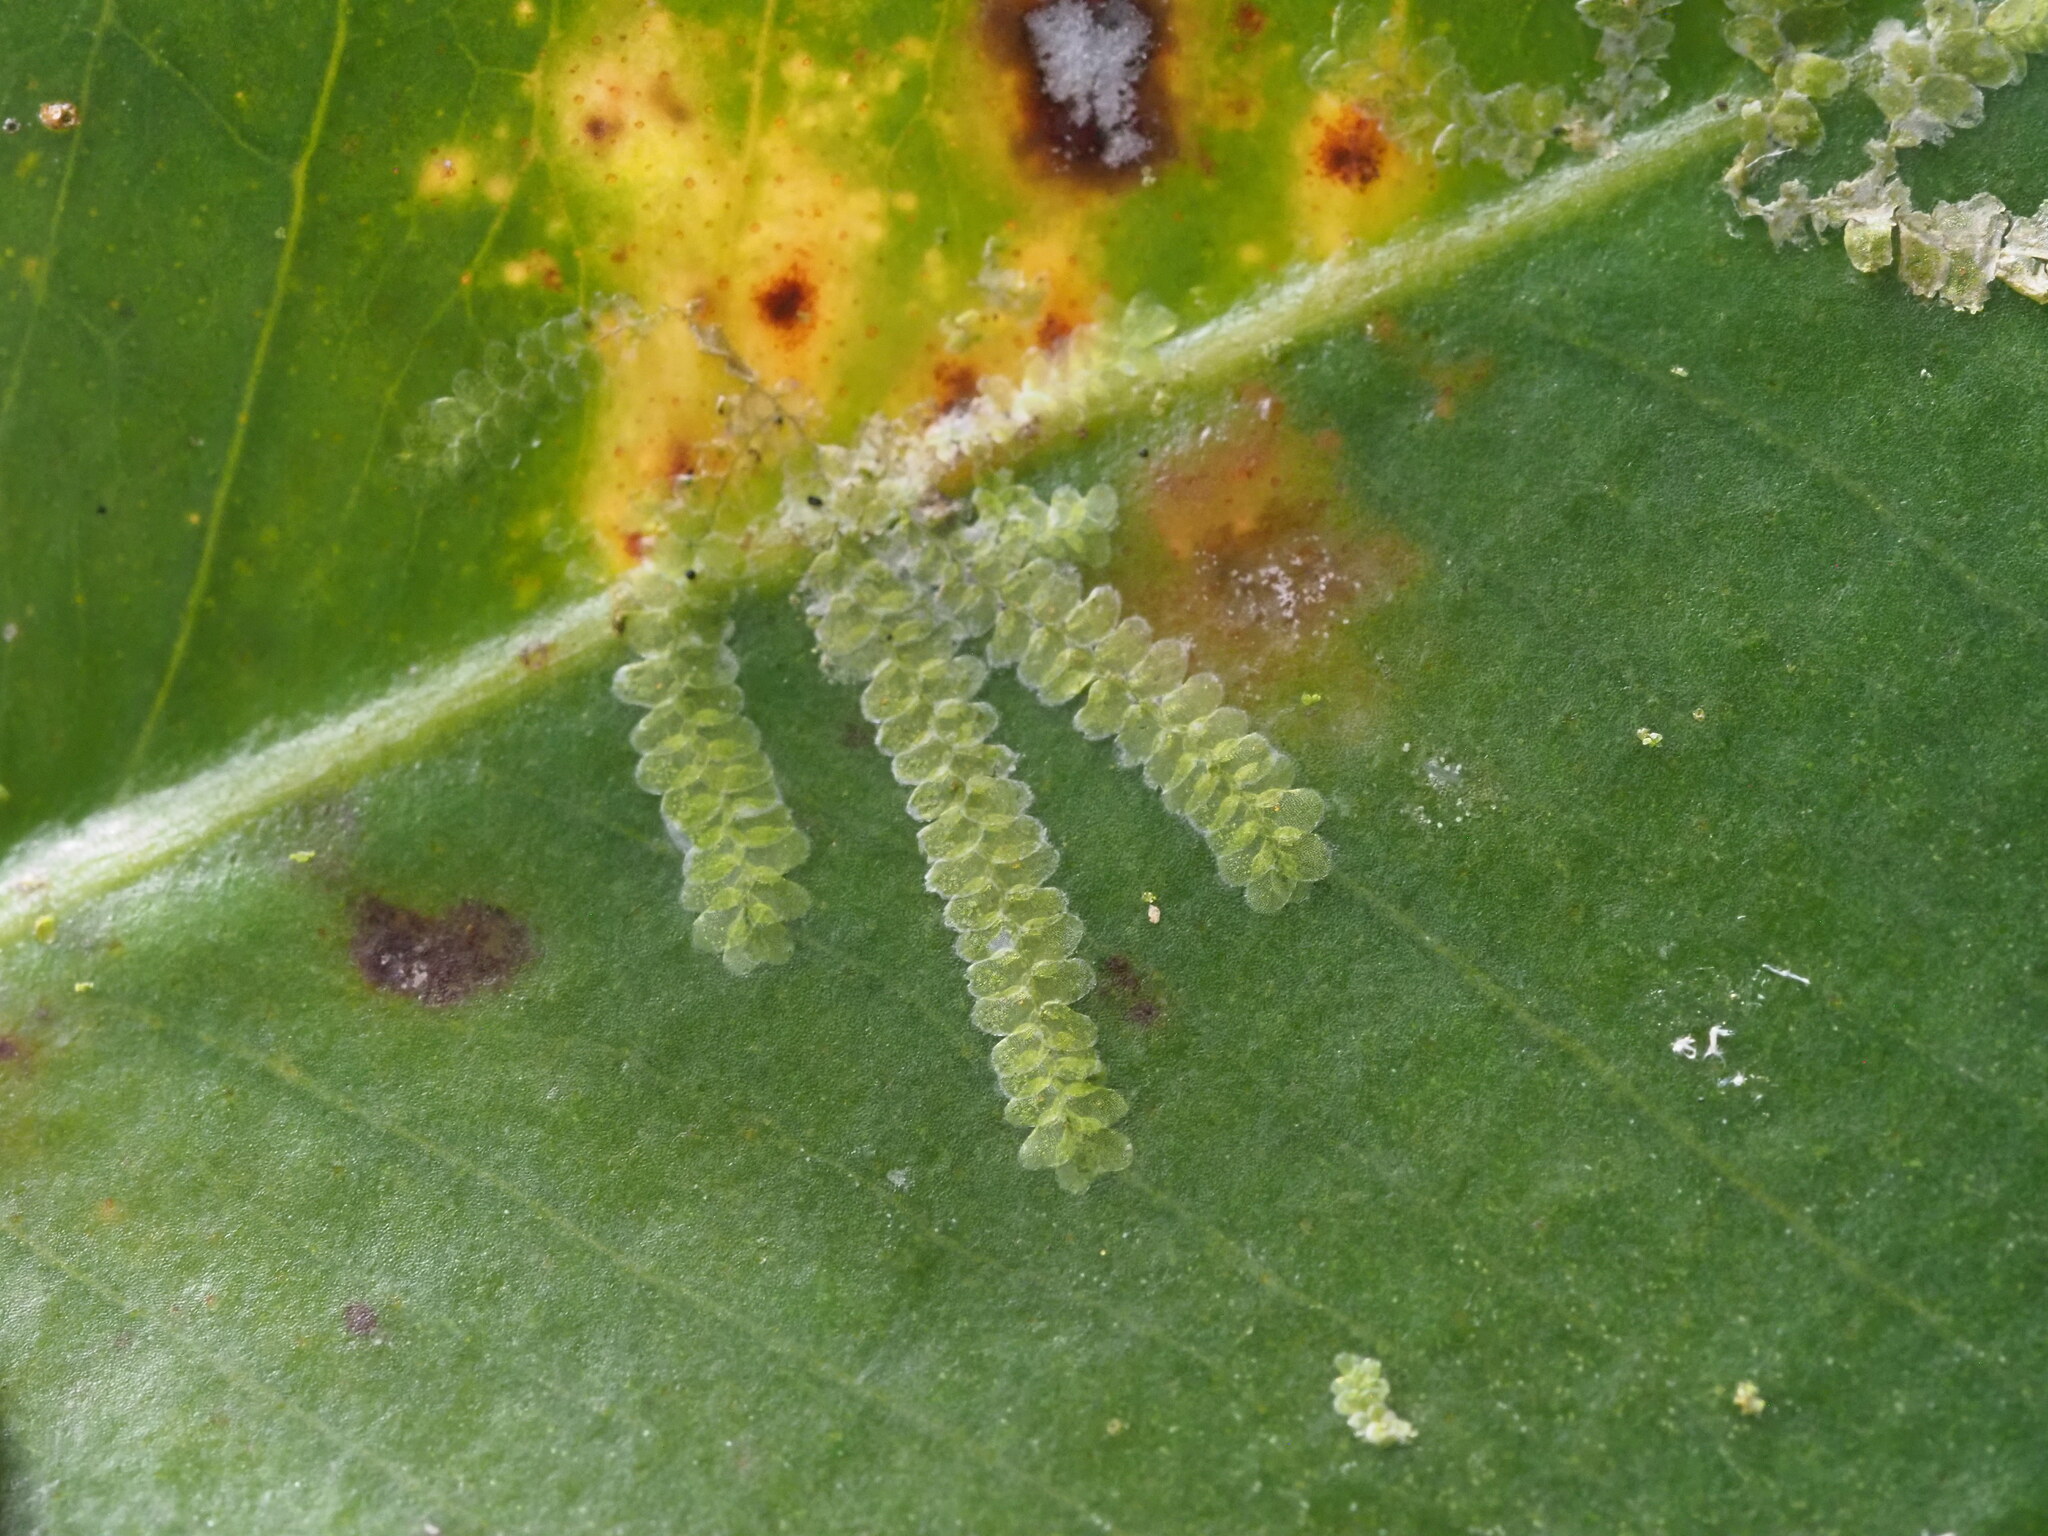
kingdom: Plantae
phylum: Marchantiophyta
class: Jungermanniopsida
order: Porellales
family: Lejeuneaceae
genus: Cololejeunea
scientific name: Cololejeunea planissima
